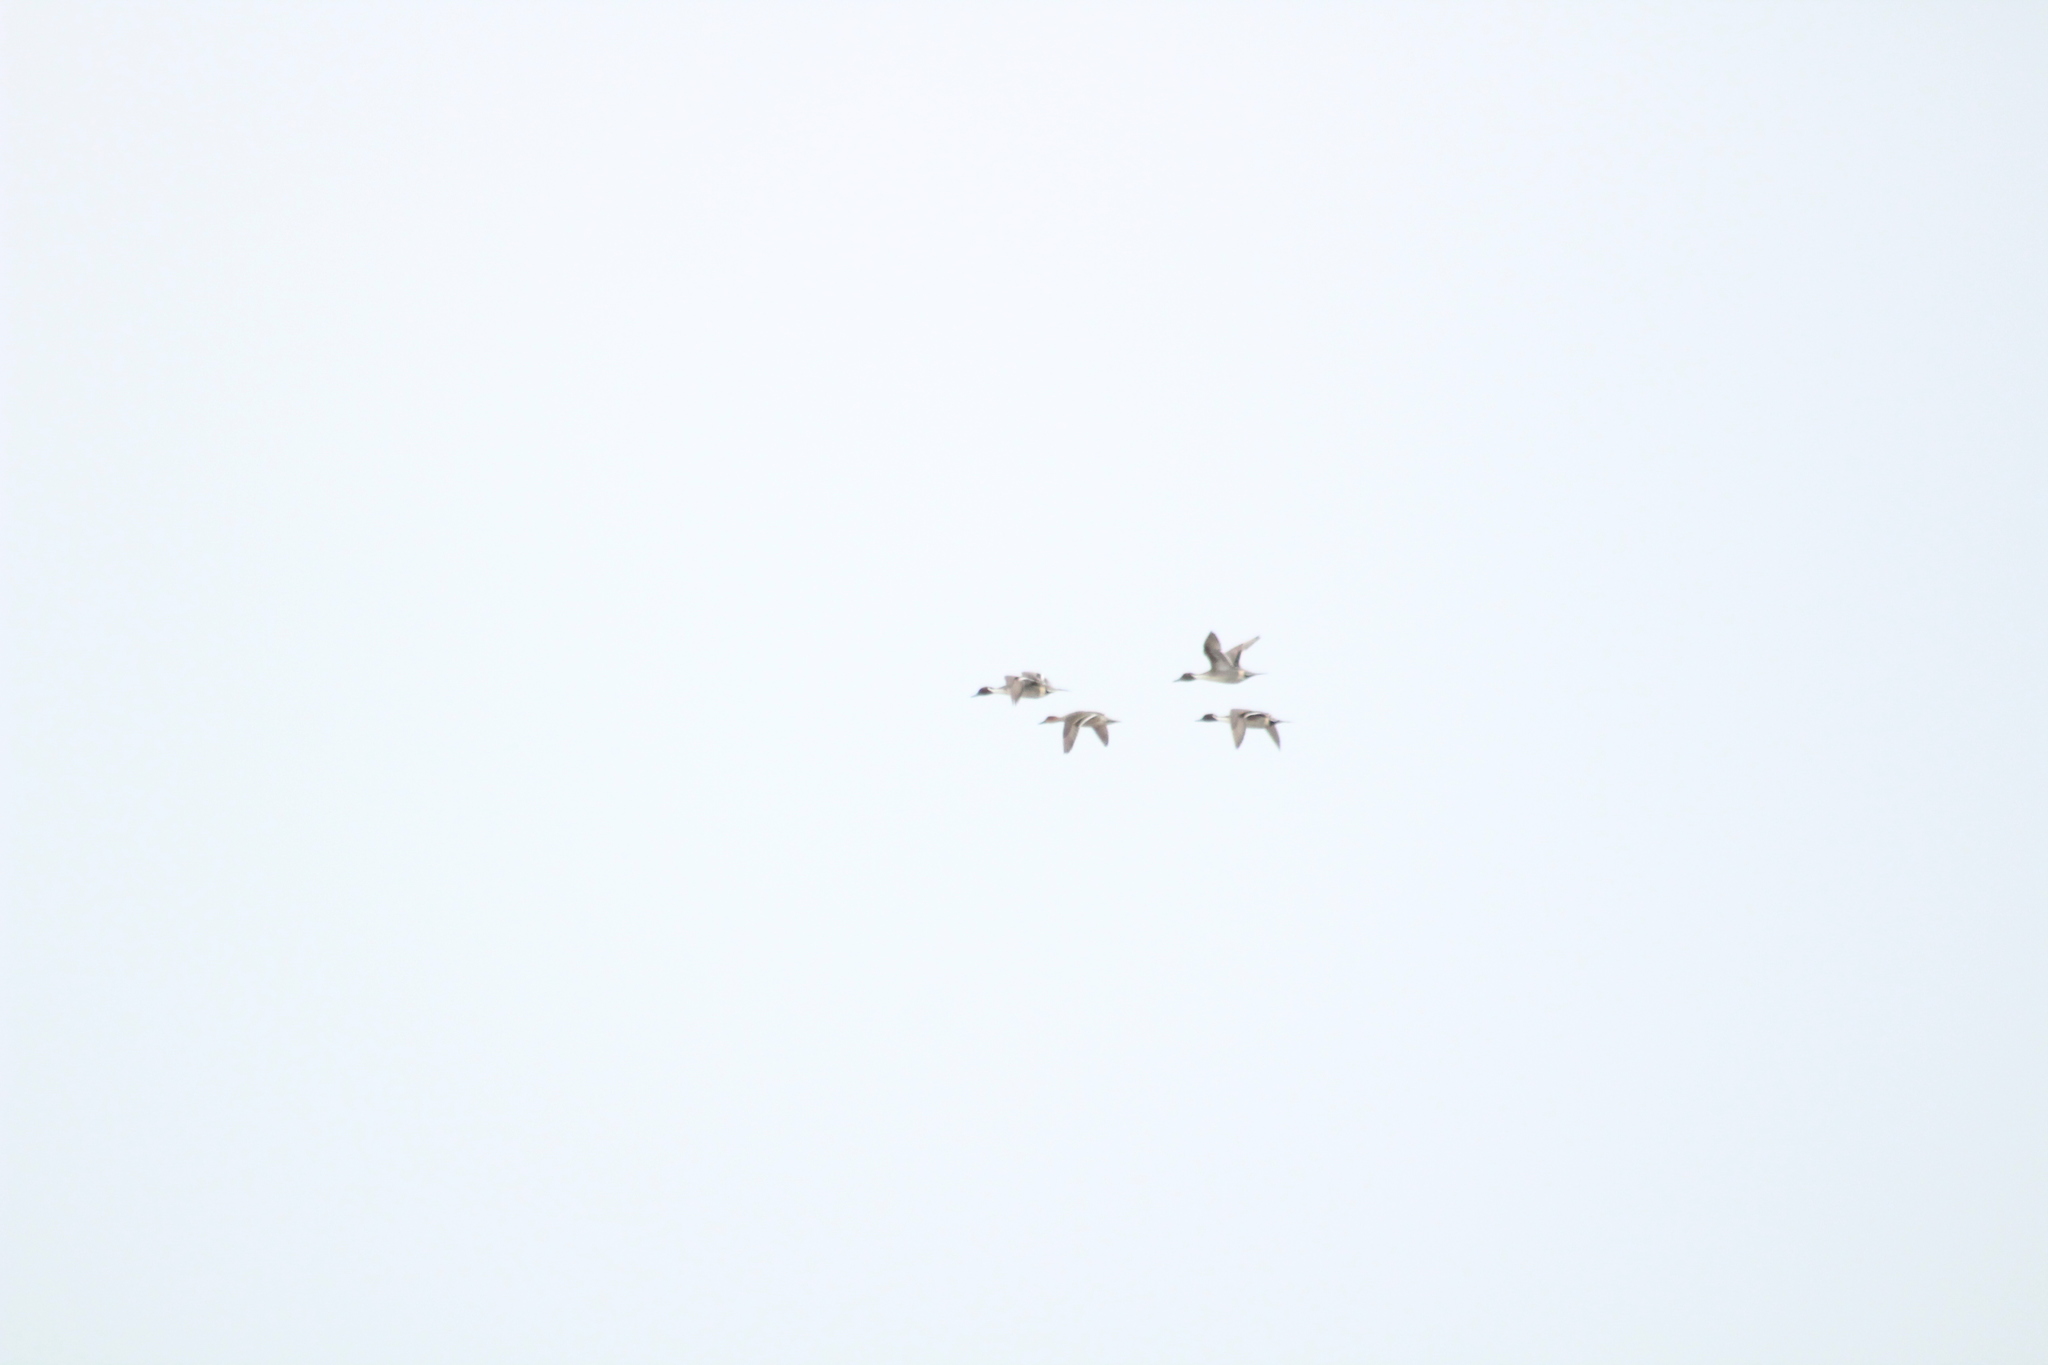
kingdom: Animalia
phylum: Chordata
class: Aves
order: Anseriformes
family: Anatidae
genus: Anas
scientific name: Anas acuta
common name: Northern pintail
